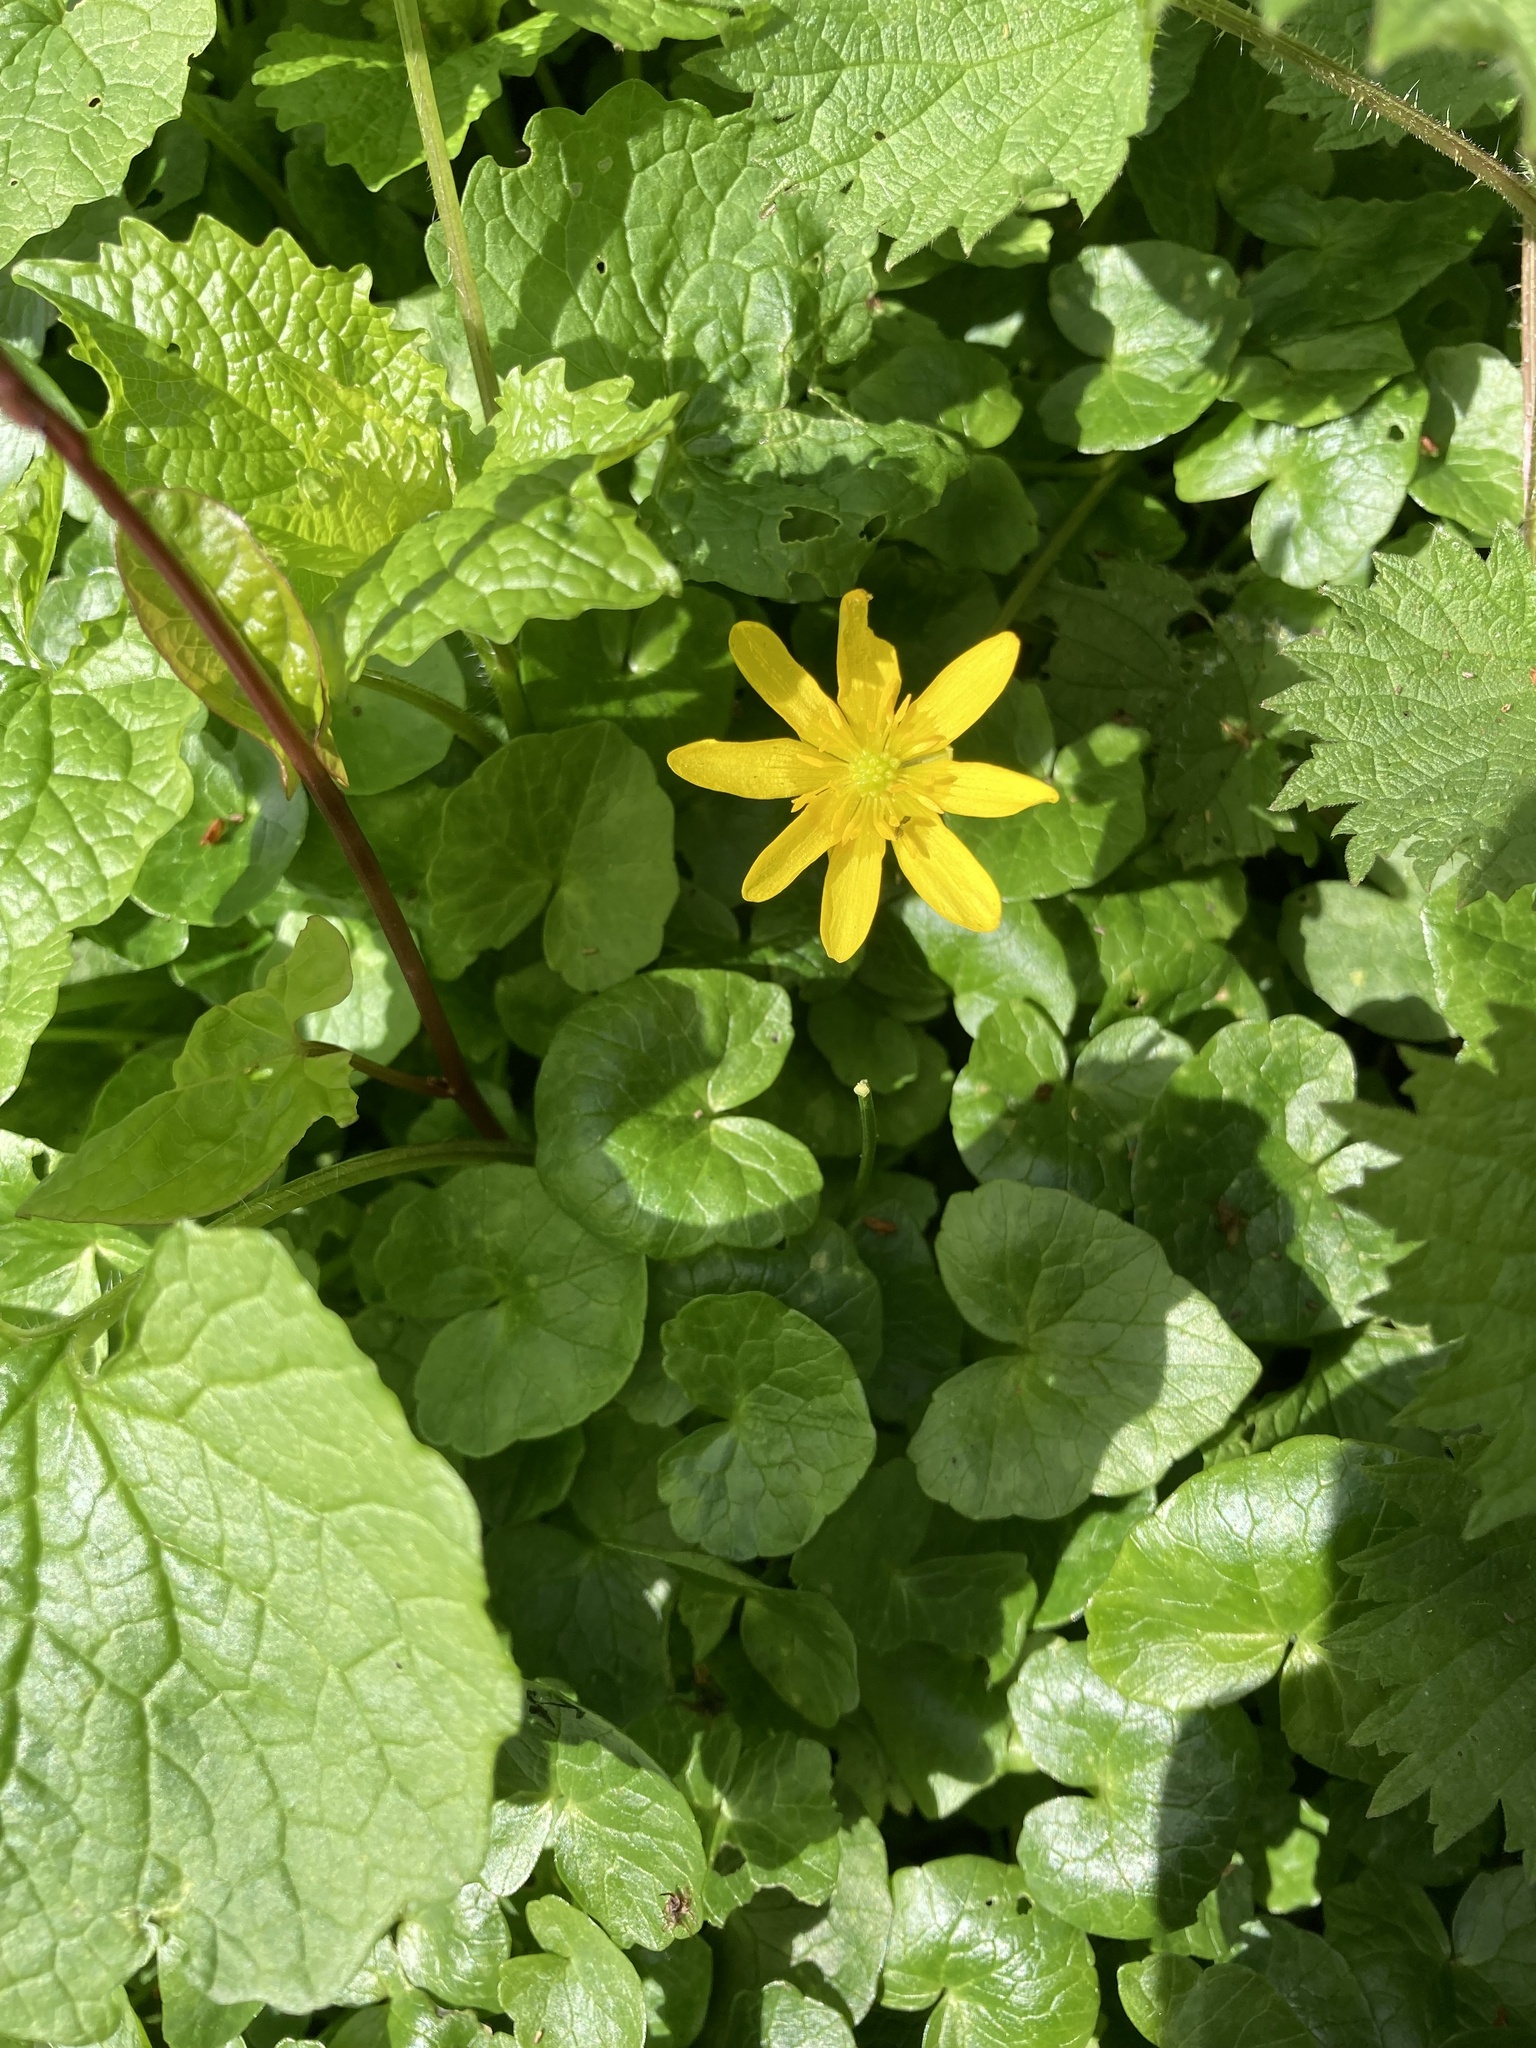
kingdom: Plantae
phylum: Tracheophyta
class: Magnoliopsida
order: Ranunculales
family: Ranunculaceae
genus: Ficaria
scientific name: Ficaria verna
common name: Lesser celandine
